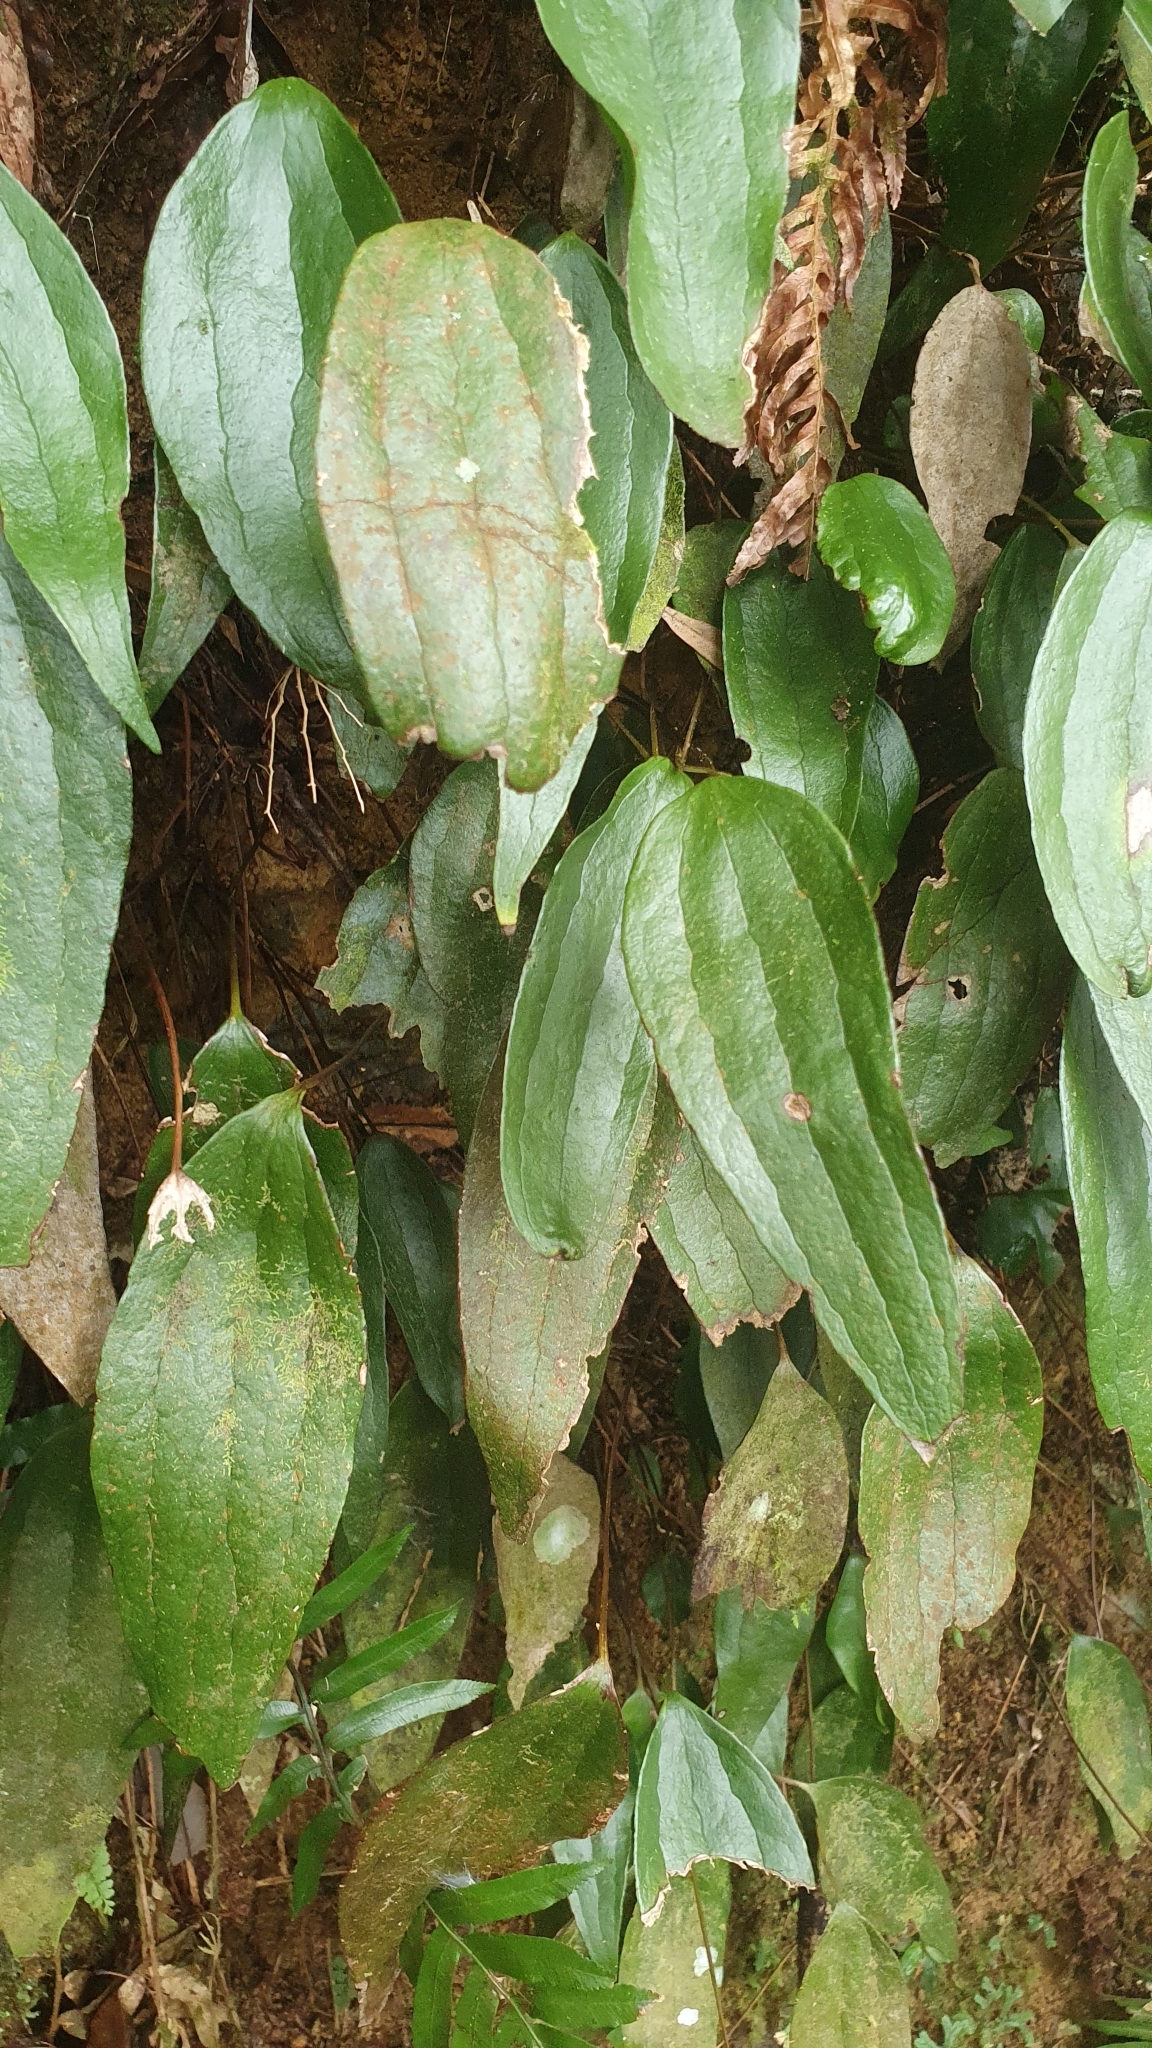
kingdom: Plantae
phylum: Tracheophyta
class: Polypodiopsida
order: Gleicheniales
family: Dipteridaceae
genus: Cheiropleuria
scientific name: Cheiropleuria integrifolia
